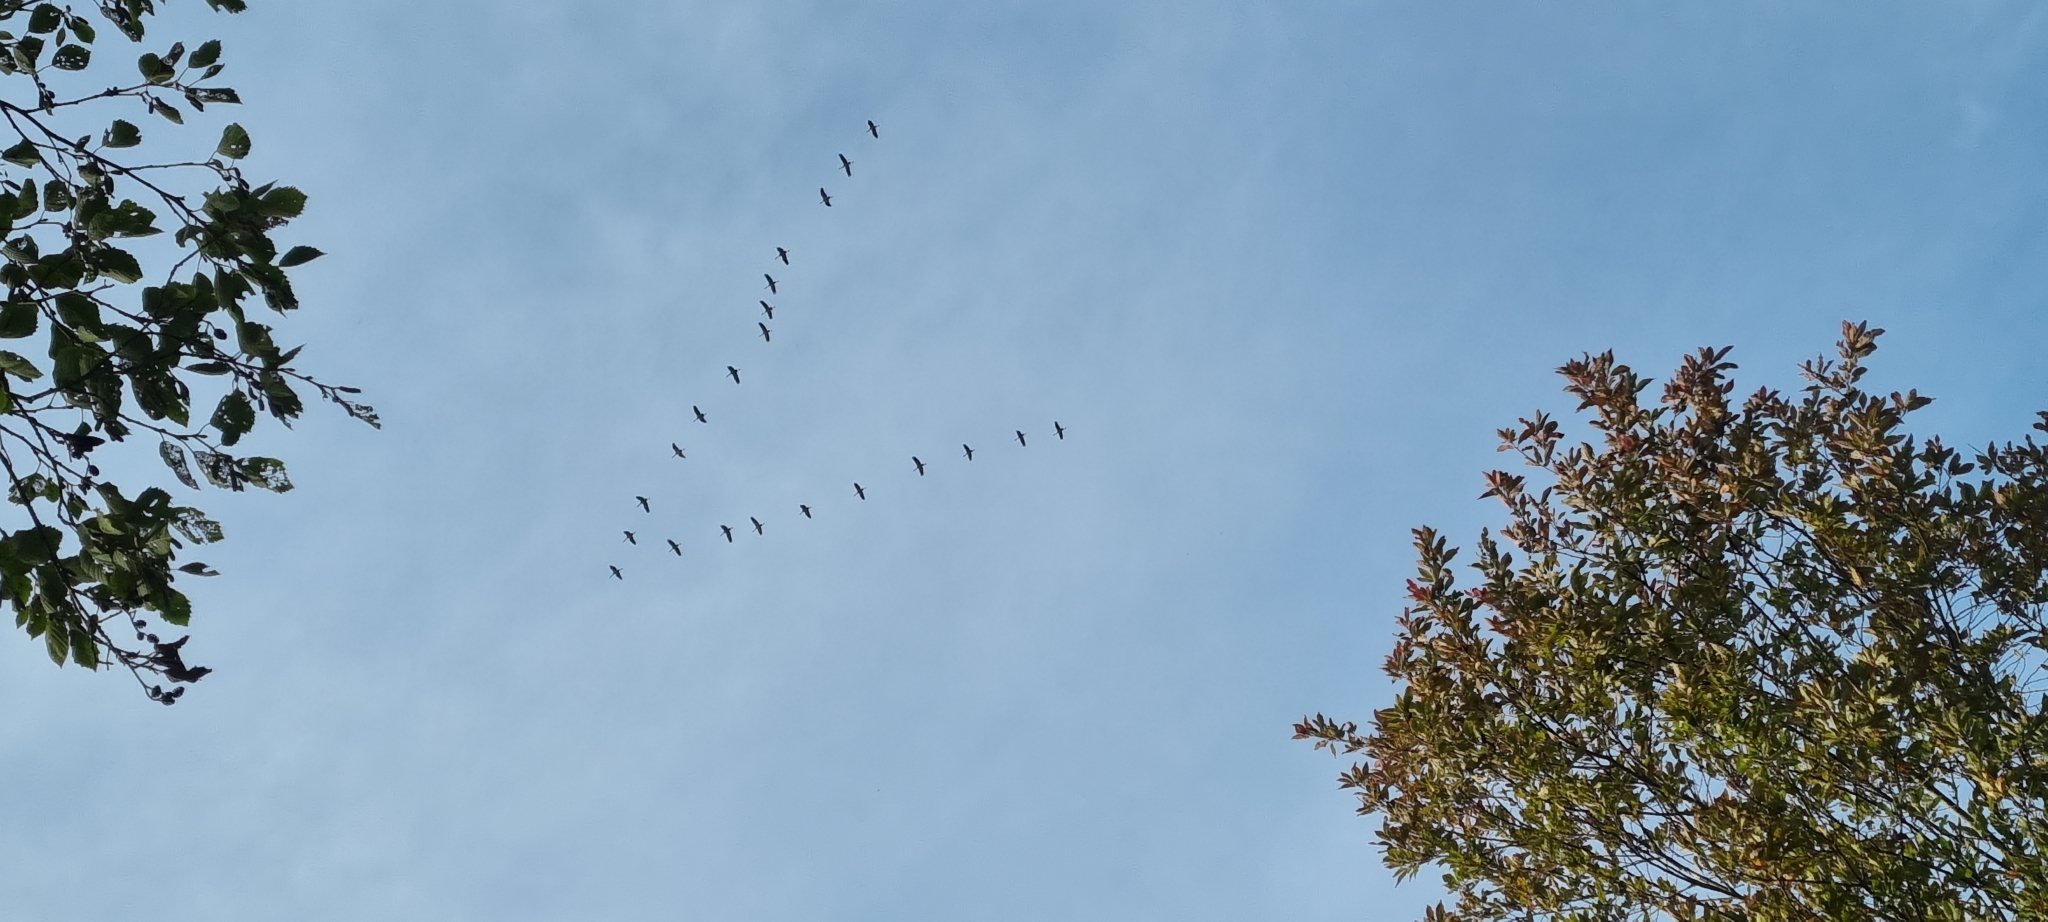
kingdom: Animalia
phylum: Chordata
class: Aves
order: Gruiformes
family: Gruidae
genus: Grus
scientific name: Grus grus
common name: Common crane
